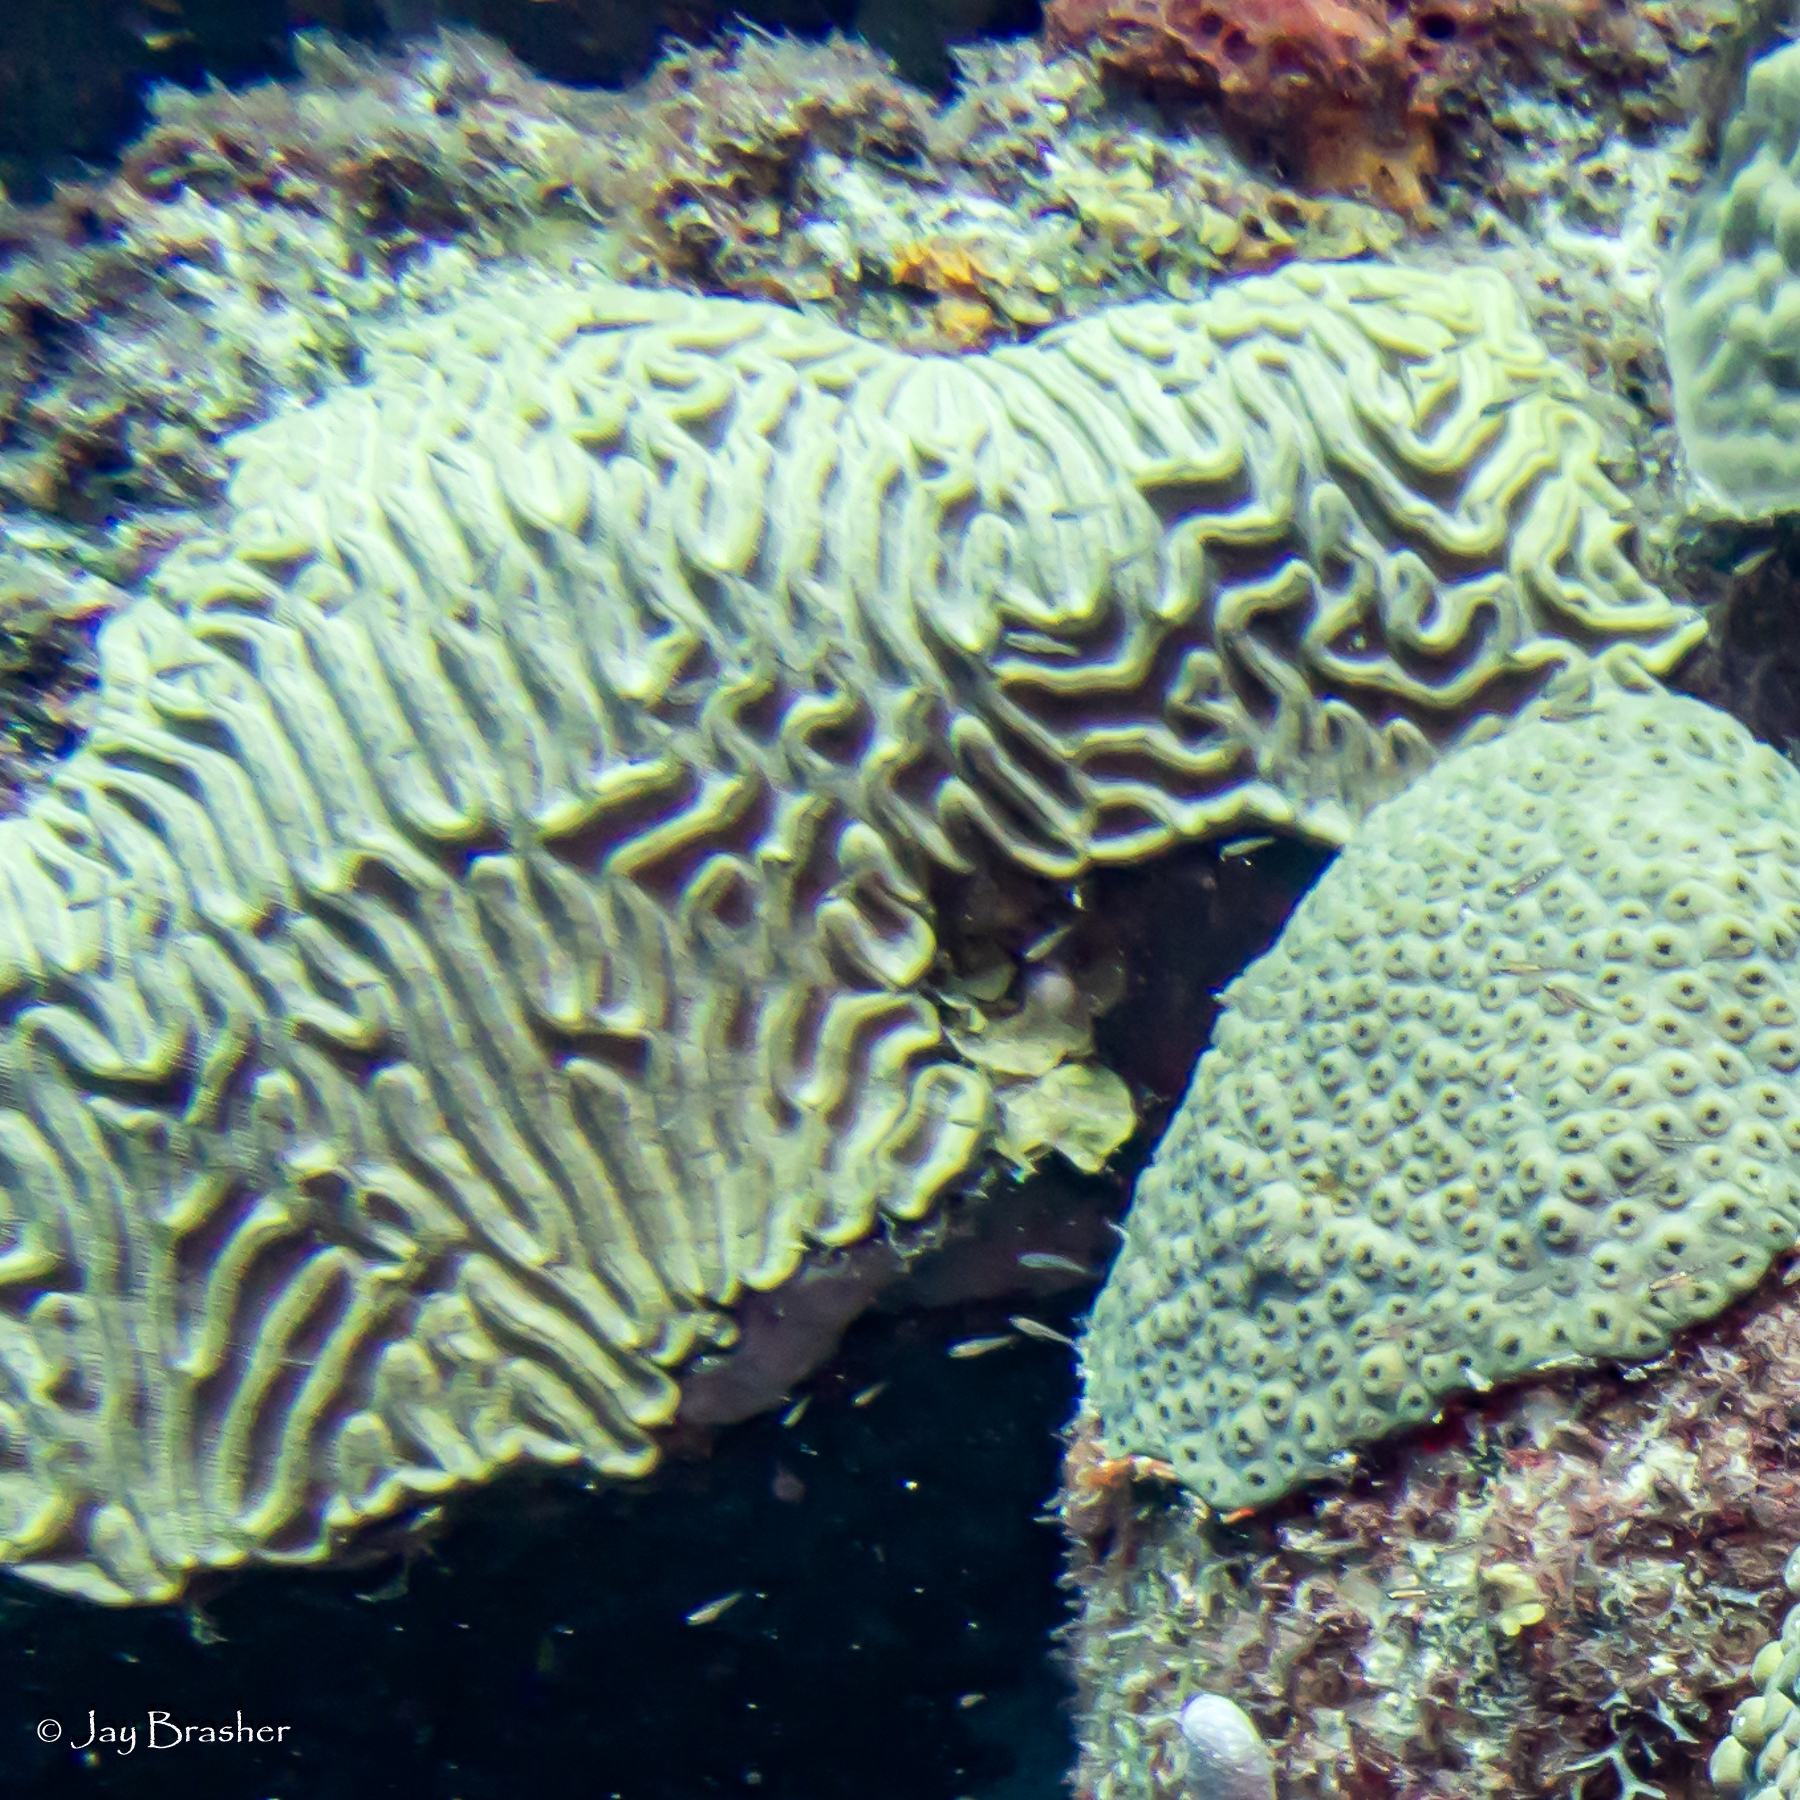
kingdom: Animalia
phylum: Cnidaria
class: Anthozoa
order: Scleractinia
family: Faviidae
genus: Colpophyllia
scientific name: Colpophyllia natans
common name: Boulder brain coral
